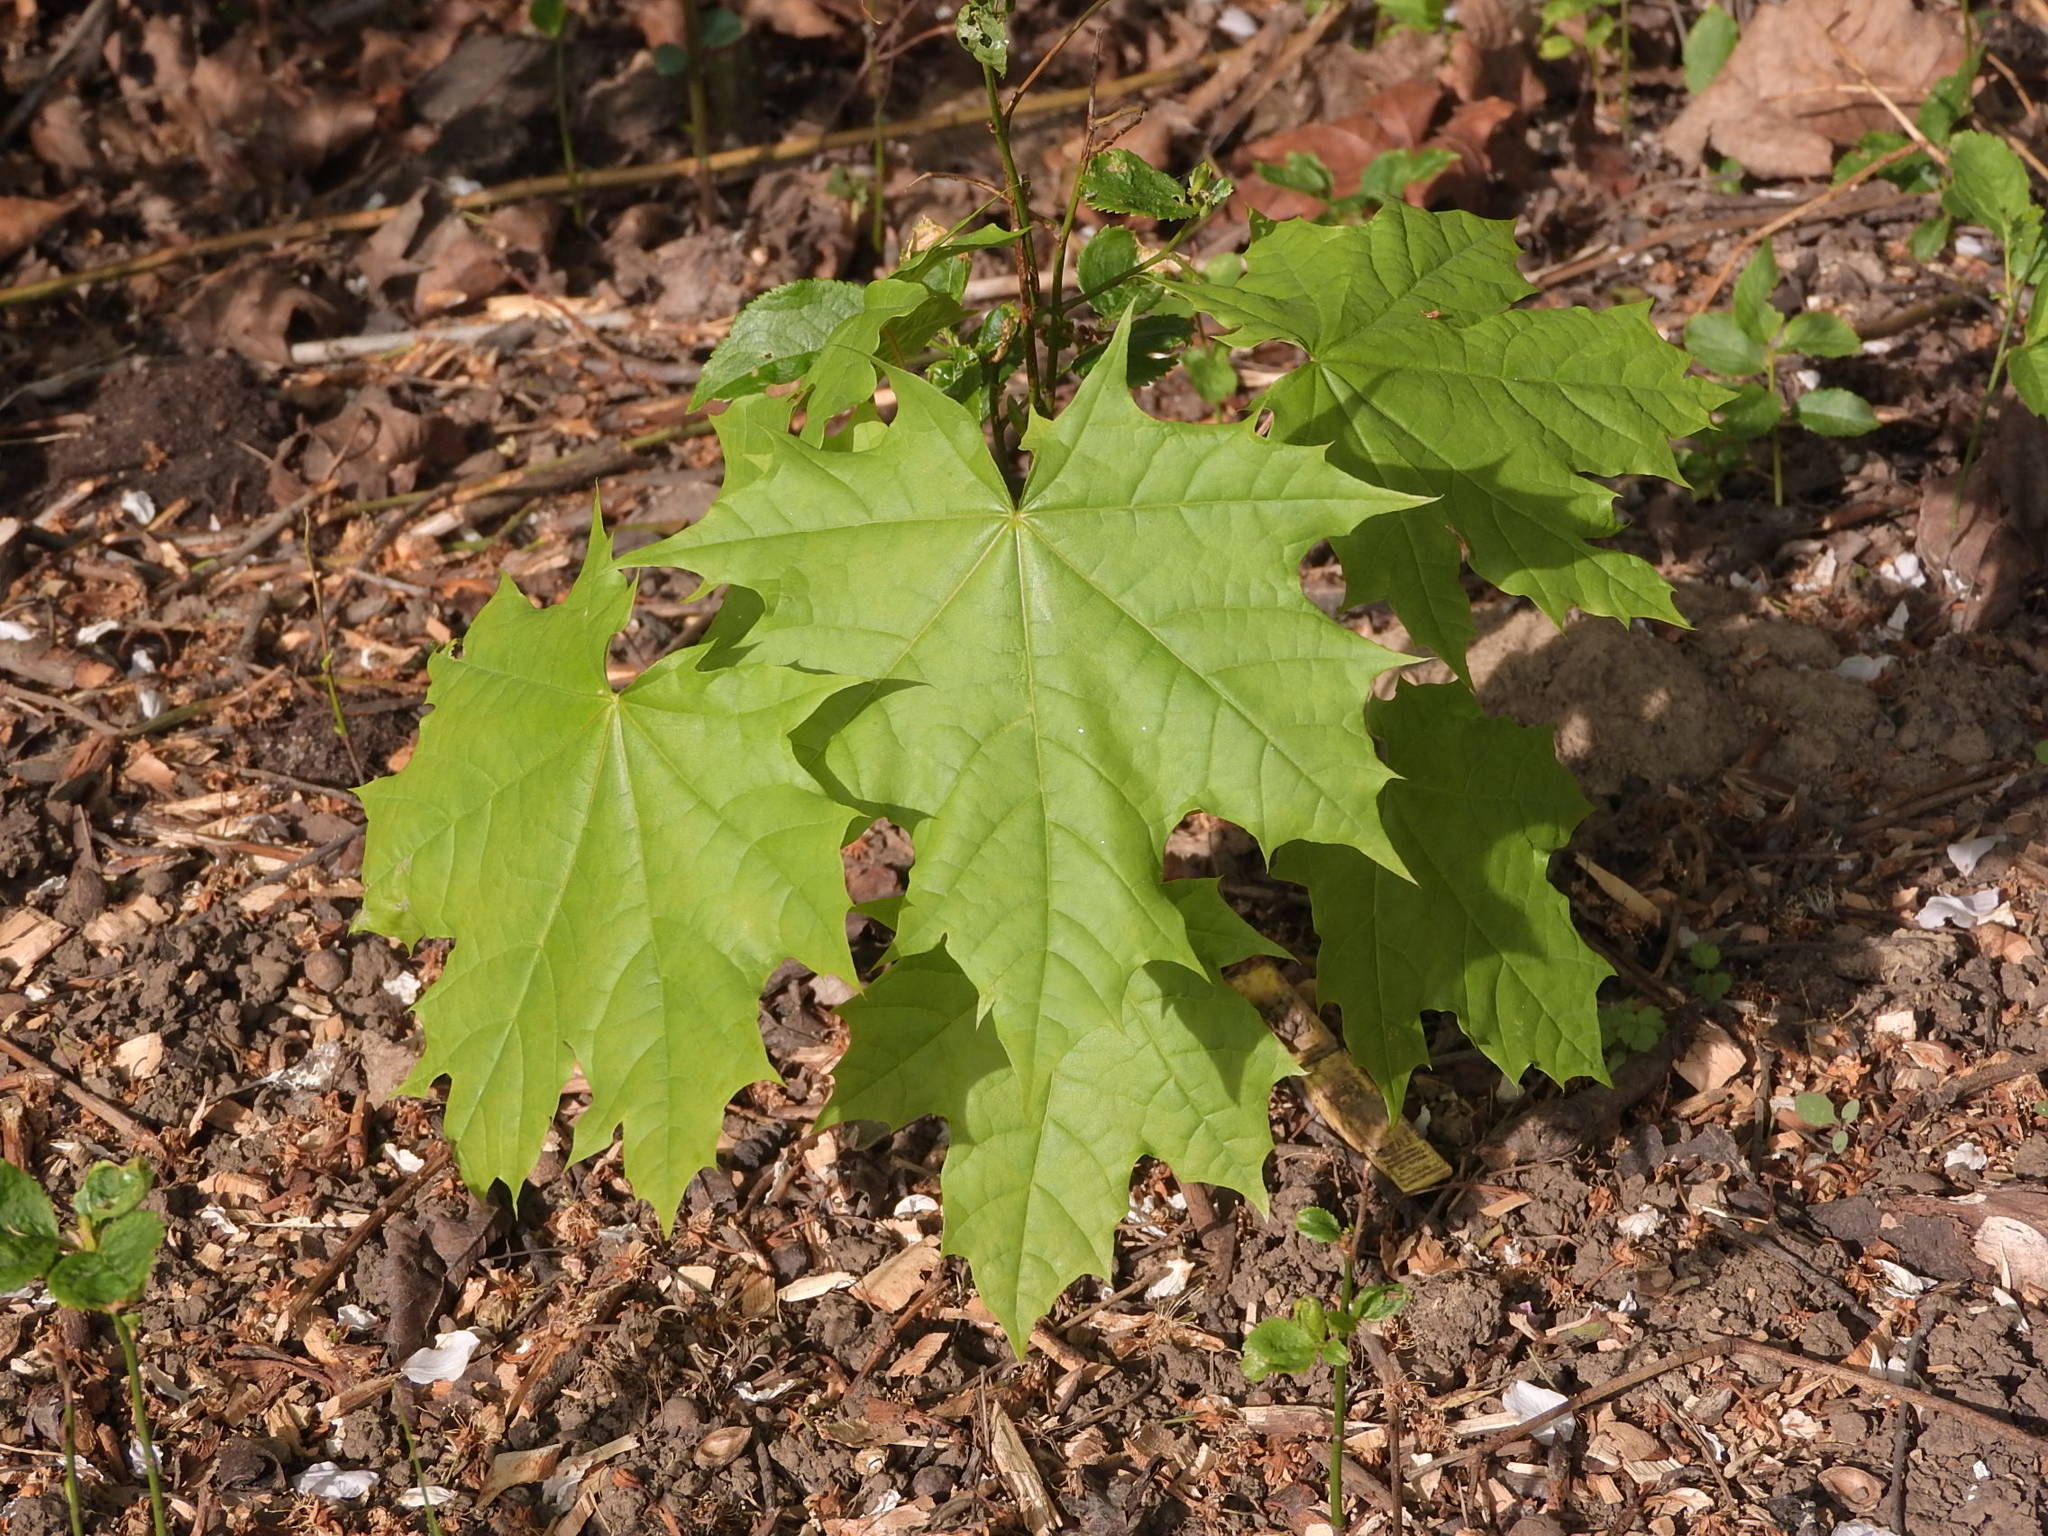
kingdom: Plantae
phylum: Tracheophyta
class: Magnoliopsida
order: Sapindales
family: Sapindaceae
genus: Acer
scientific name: Acer platanoides
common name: Norway maple
